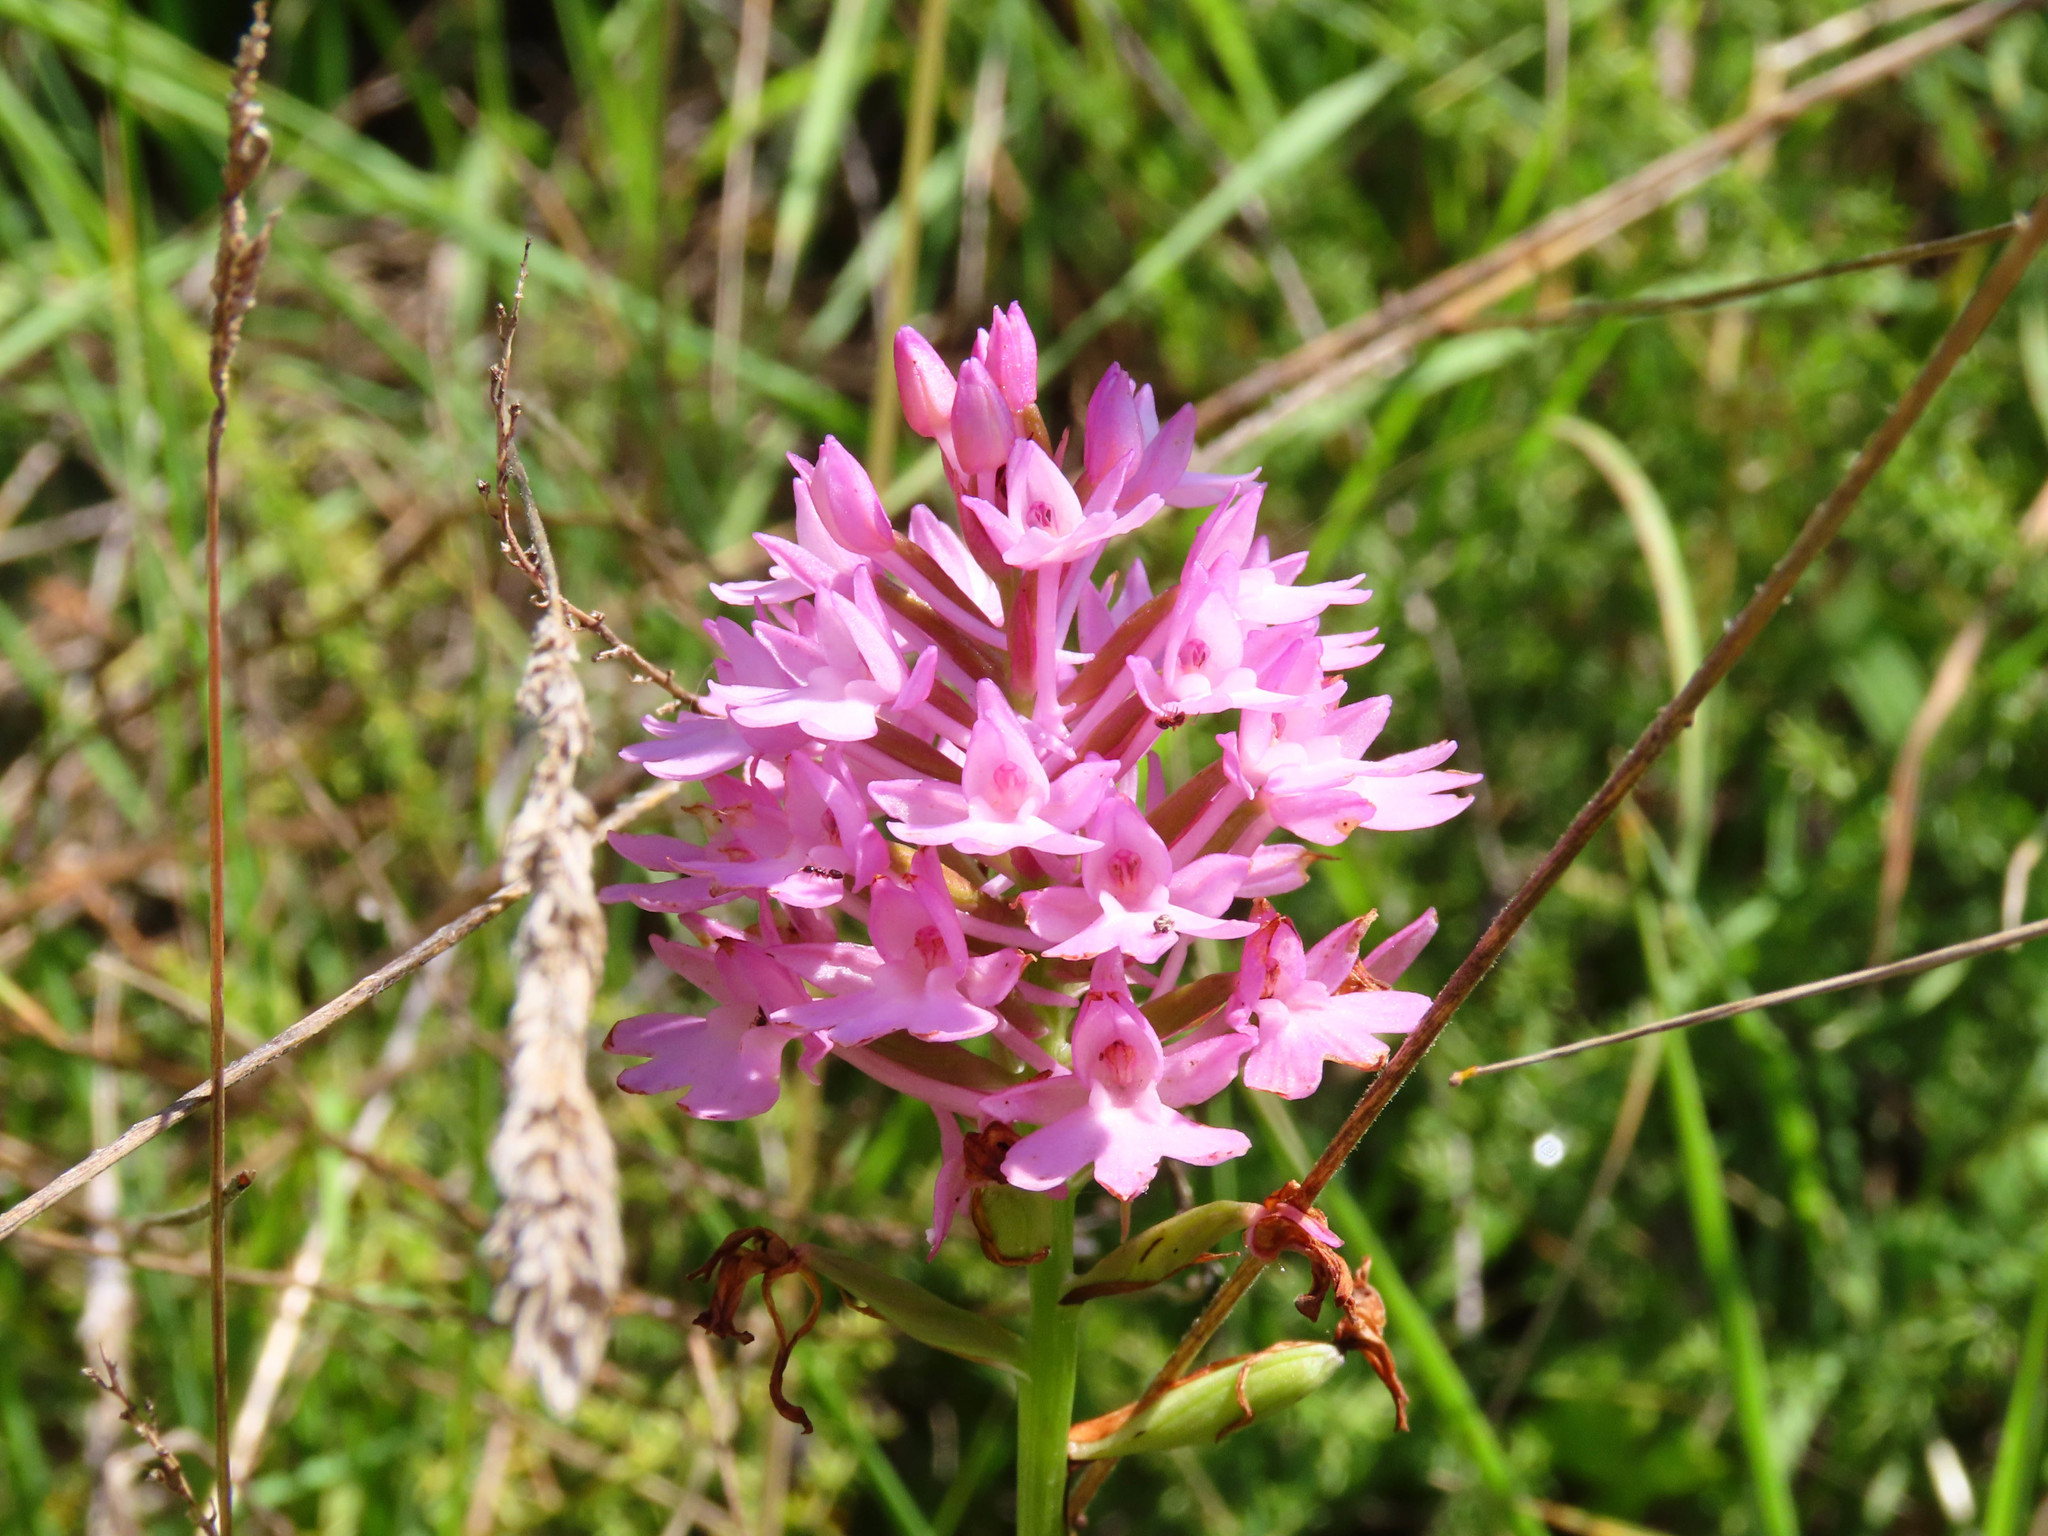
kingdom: Plantae
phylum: Tracheophyta
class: Liliopsida
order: Asparagales
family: Orchidaceae
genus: Anacamptis
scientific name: Anacamptis pyramidalis
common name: Pyramidal orchid
